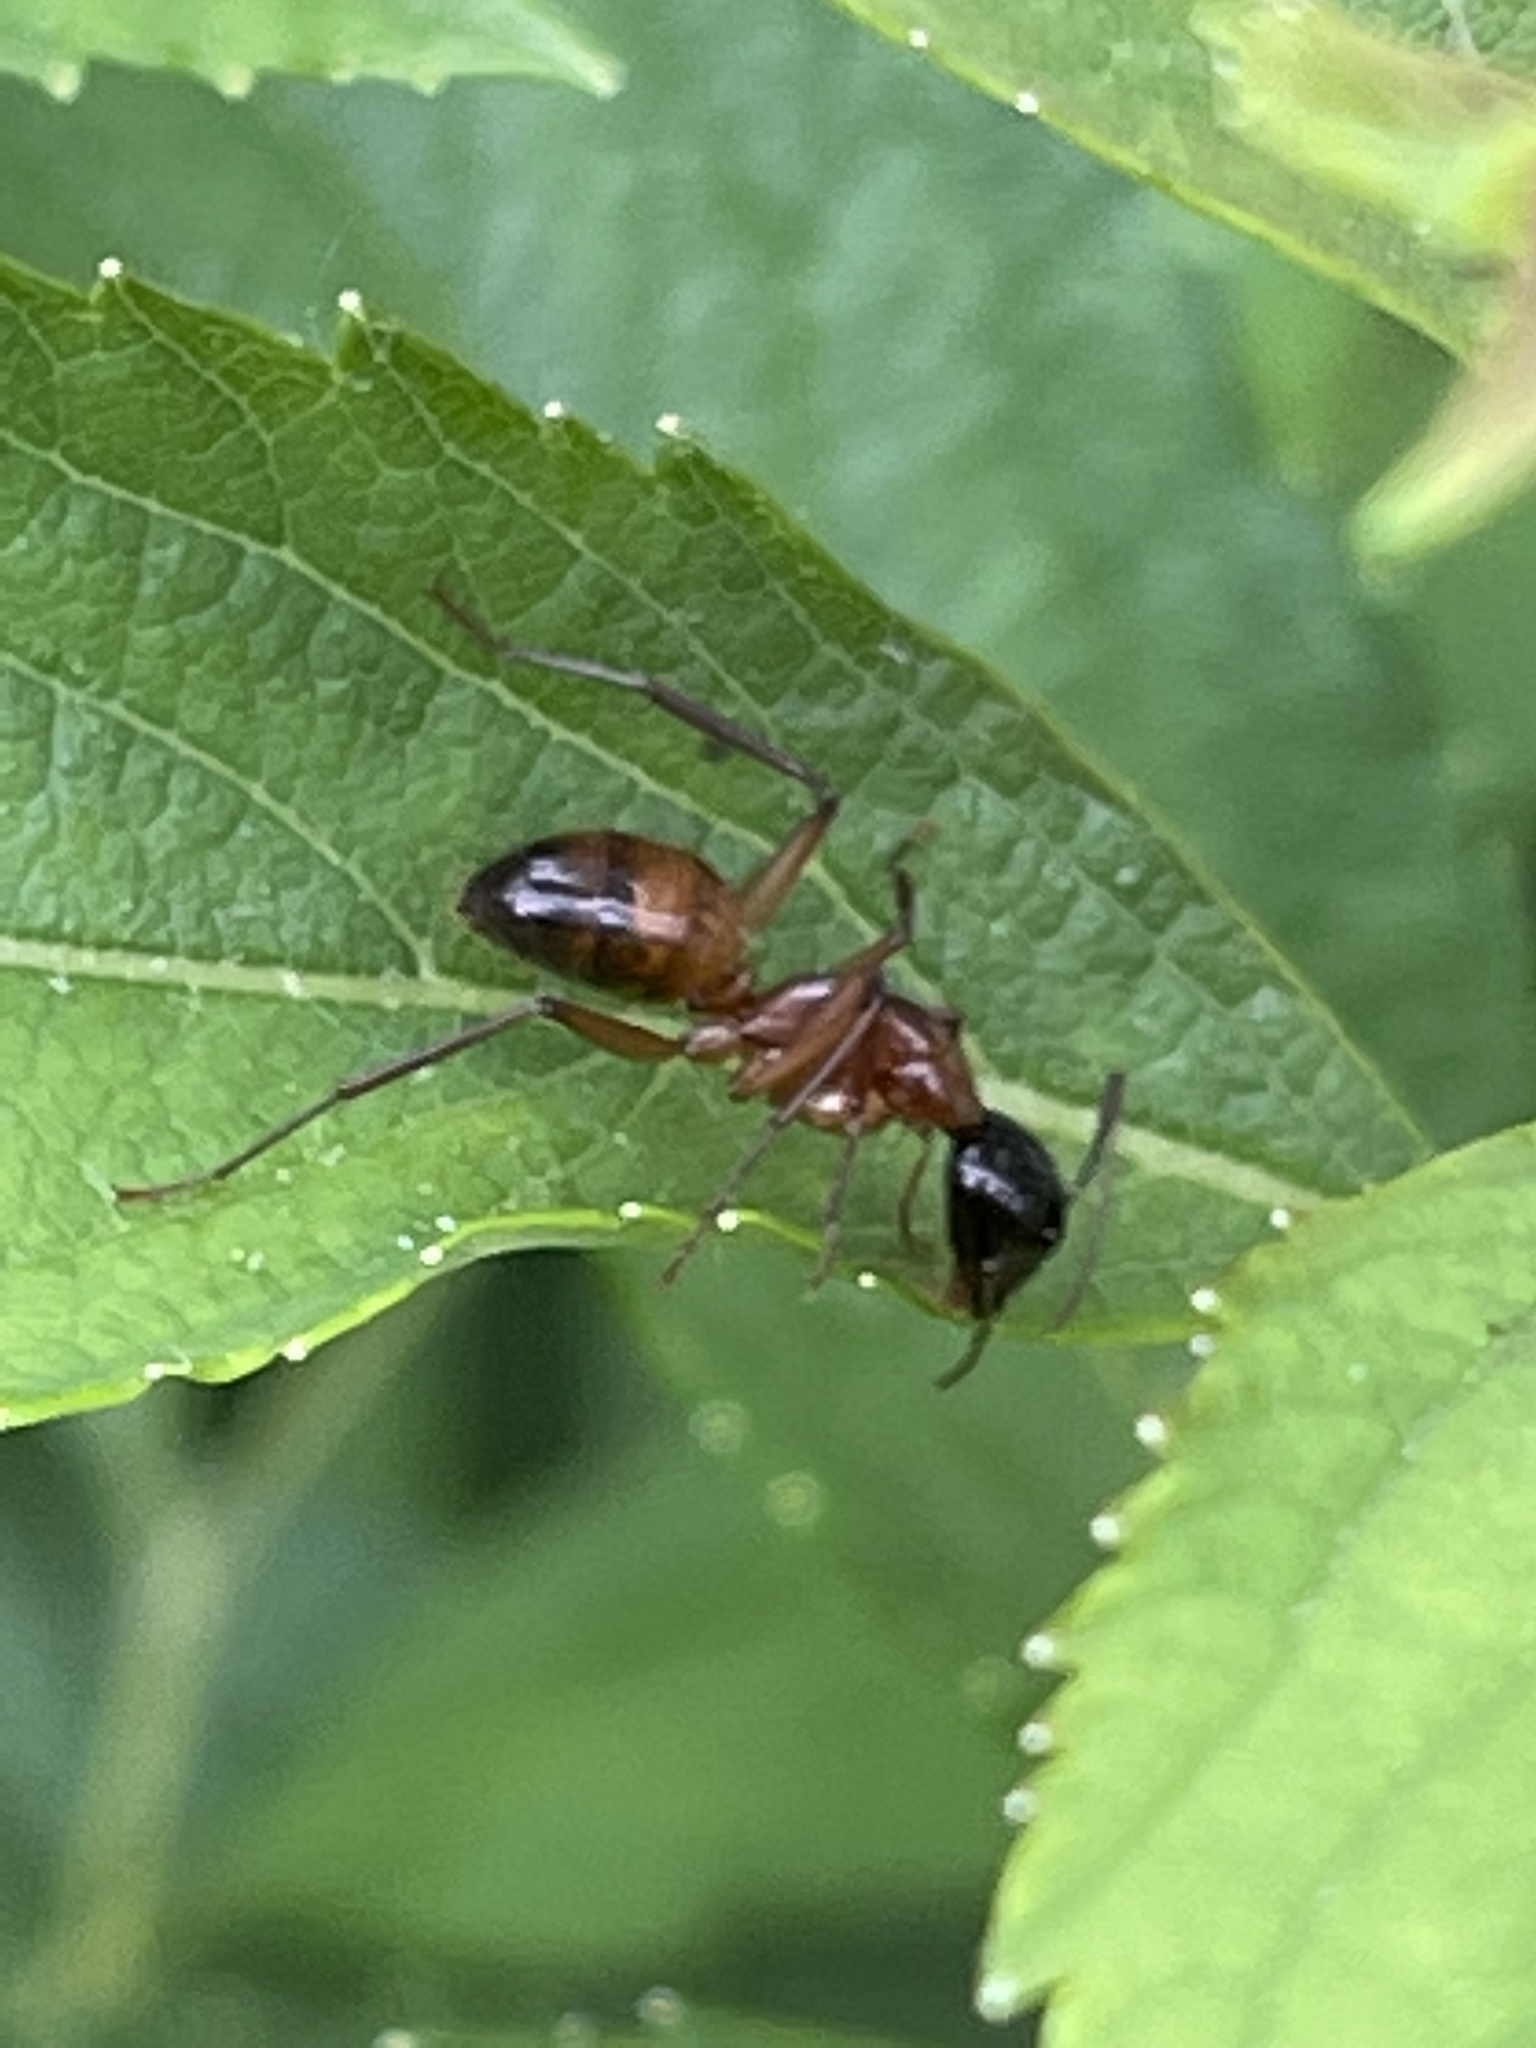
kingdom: Animalia
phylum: Arthropoda
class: Insecta
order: Hymenoptera
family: Formicidae
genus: Camponotus
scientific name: Camponotus americanus
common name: American carpenter ant
